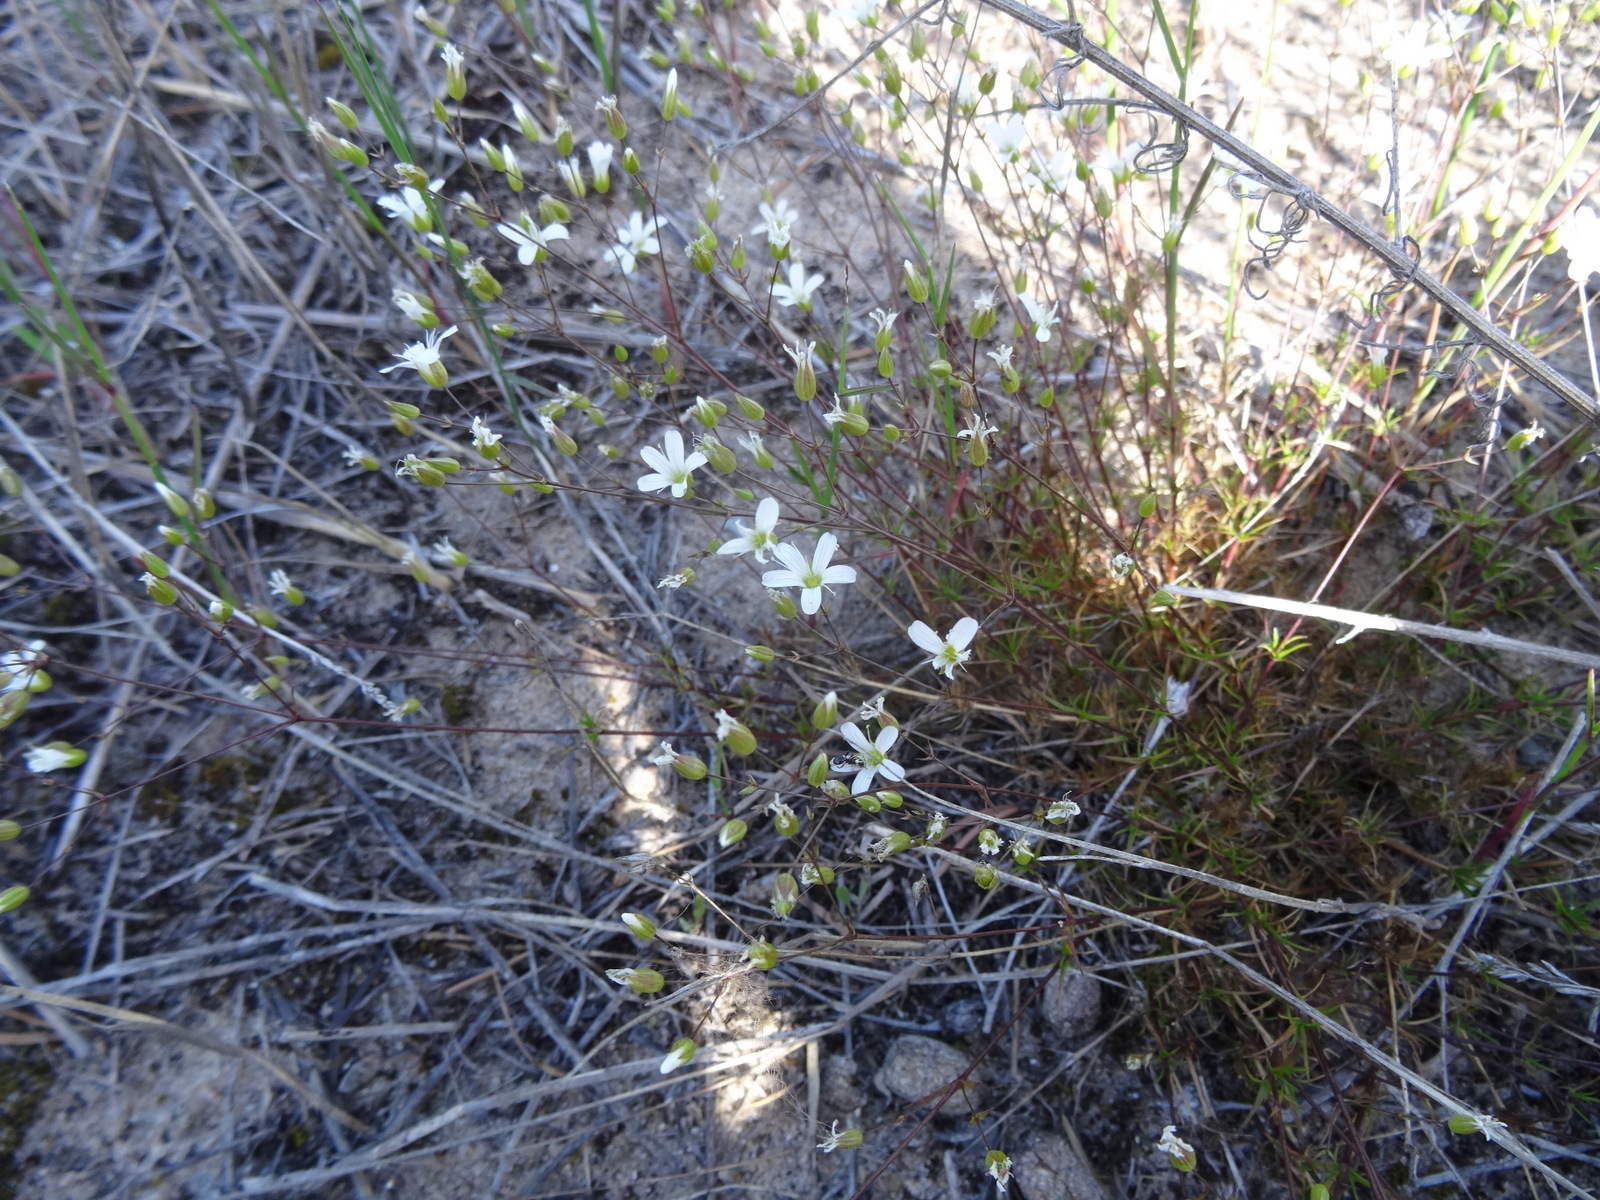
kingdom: Plantae
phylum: Tracheophyta
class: Magnoliopsida
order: Caryophyllales
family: Caryophyllaceae
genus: Sabulina
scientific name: Sabulina michauxii
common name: Michaux's stitchwort
